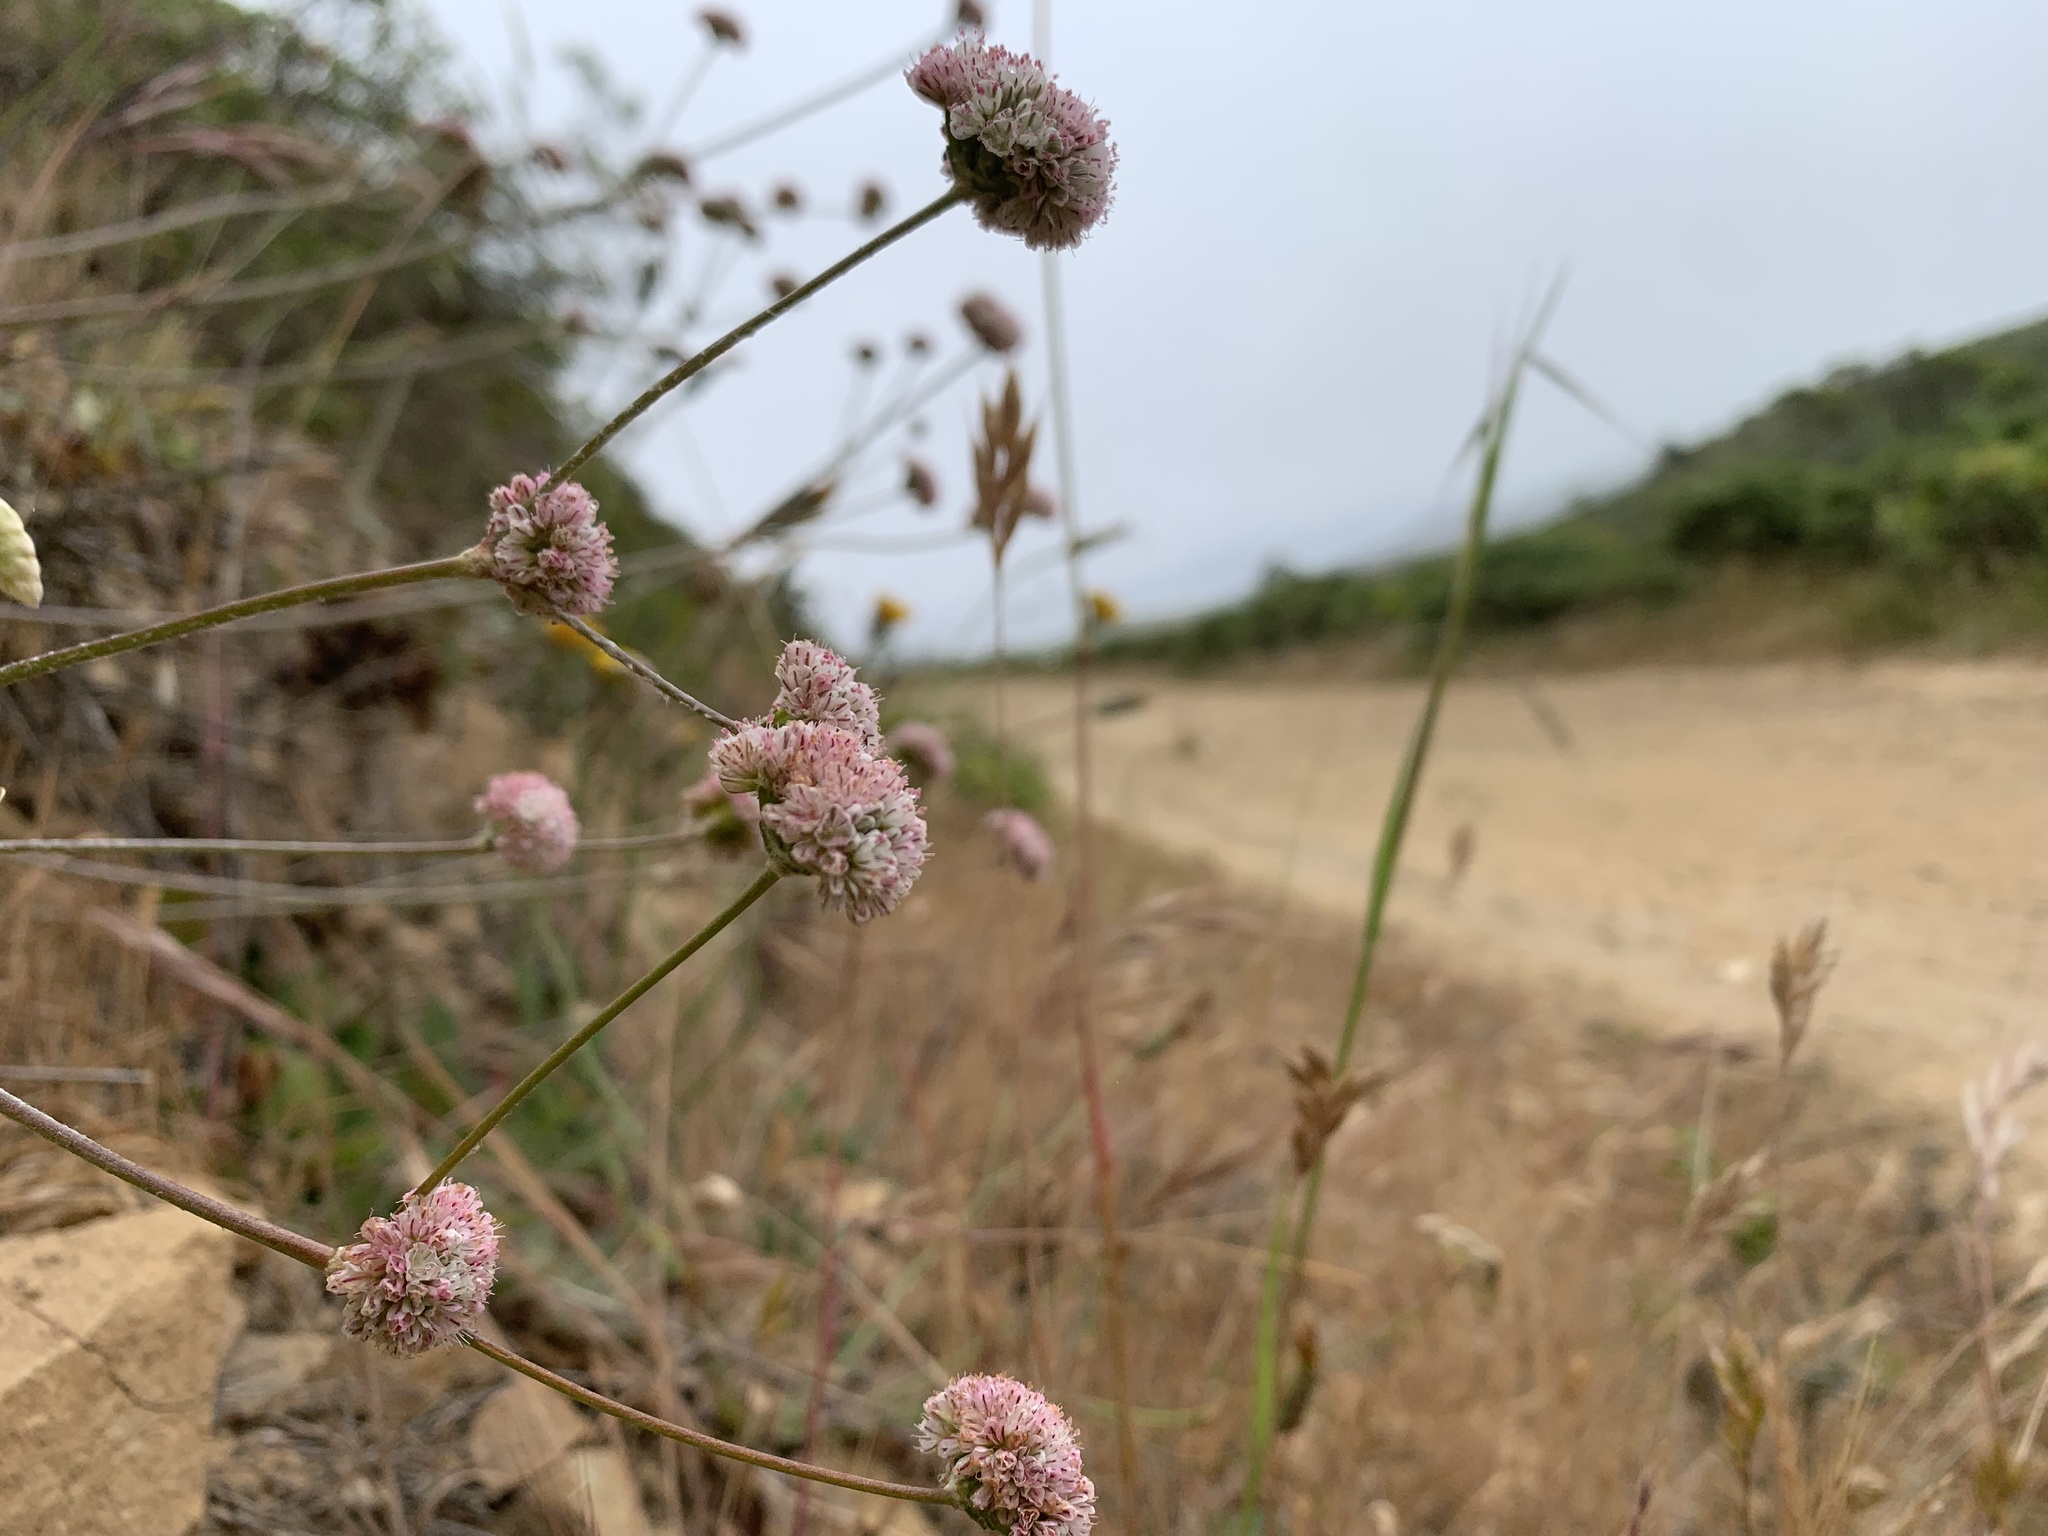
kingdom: Plantae
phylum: Tracheophyta
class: Magnoliopsida
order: Caryophyllales
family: Polygonaceae
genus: Eriogonum
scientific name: Eriogonum latifolium
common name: Seaside wild buckwheat
